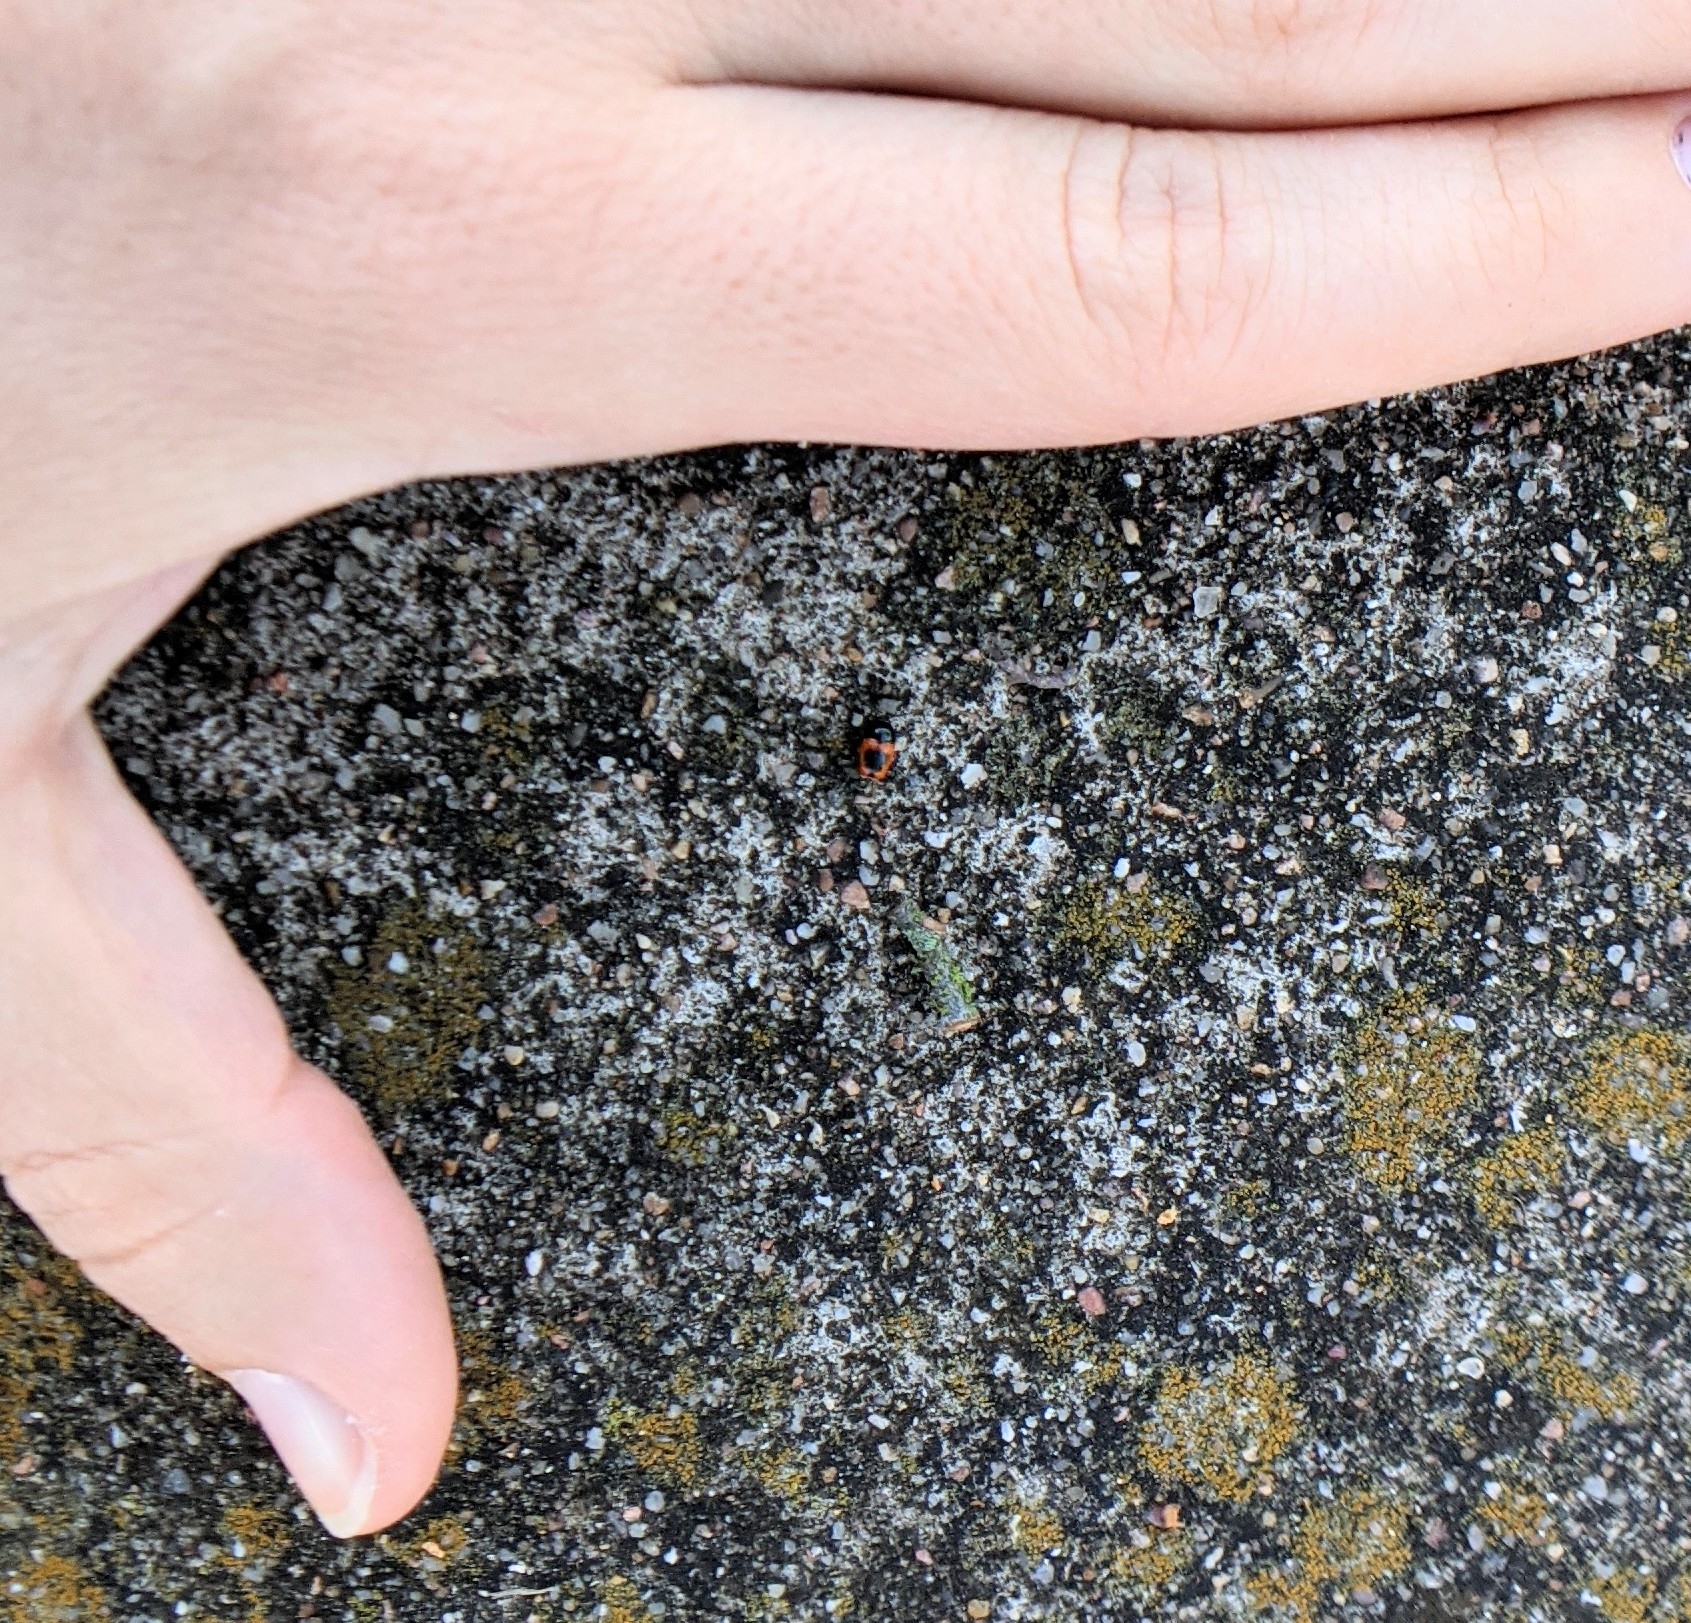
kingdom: Animalia
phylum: Arthropoda
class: Insecta
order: Coleoptera
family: Chrysomelidae
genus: Cryptocephalus
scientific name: Cryptocephalus notatus
